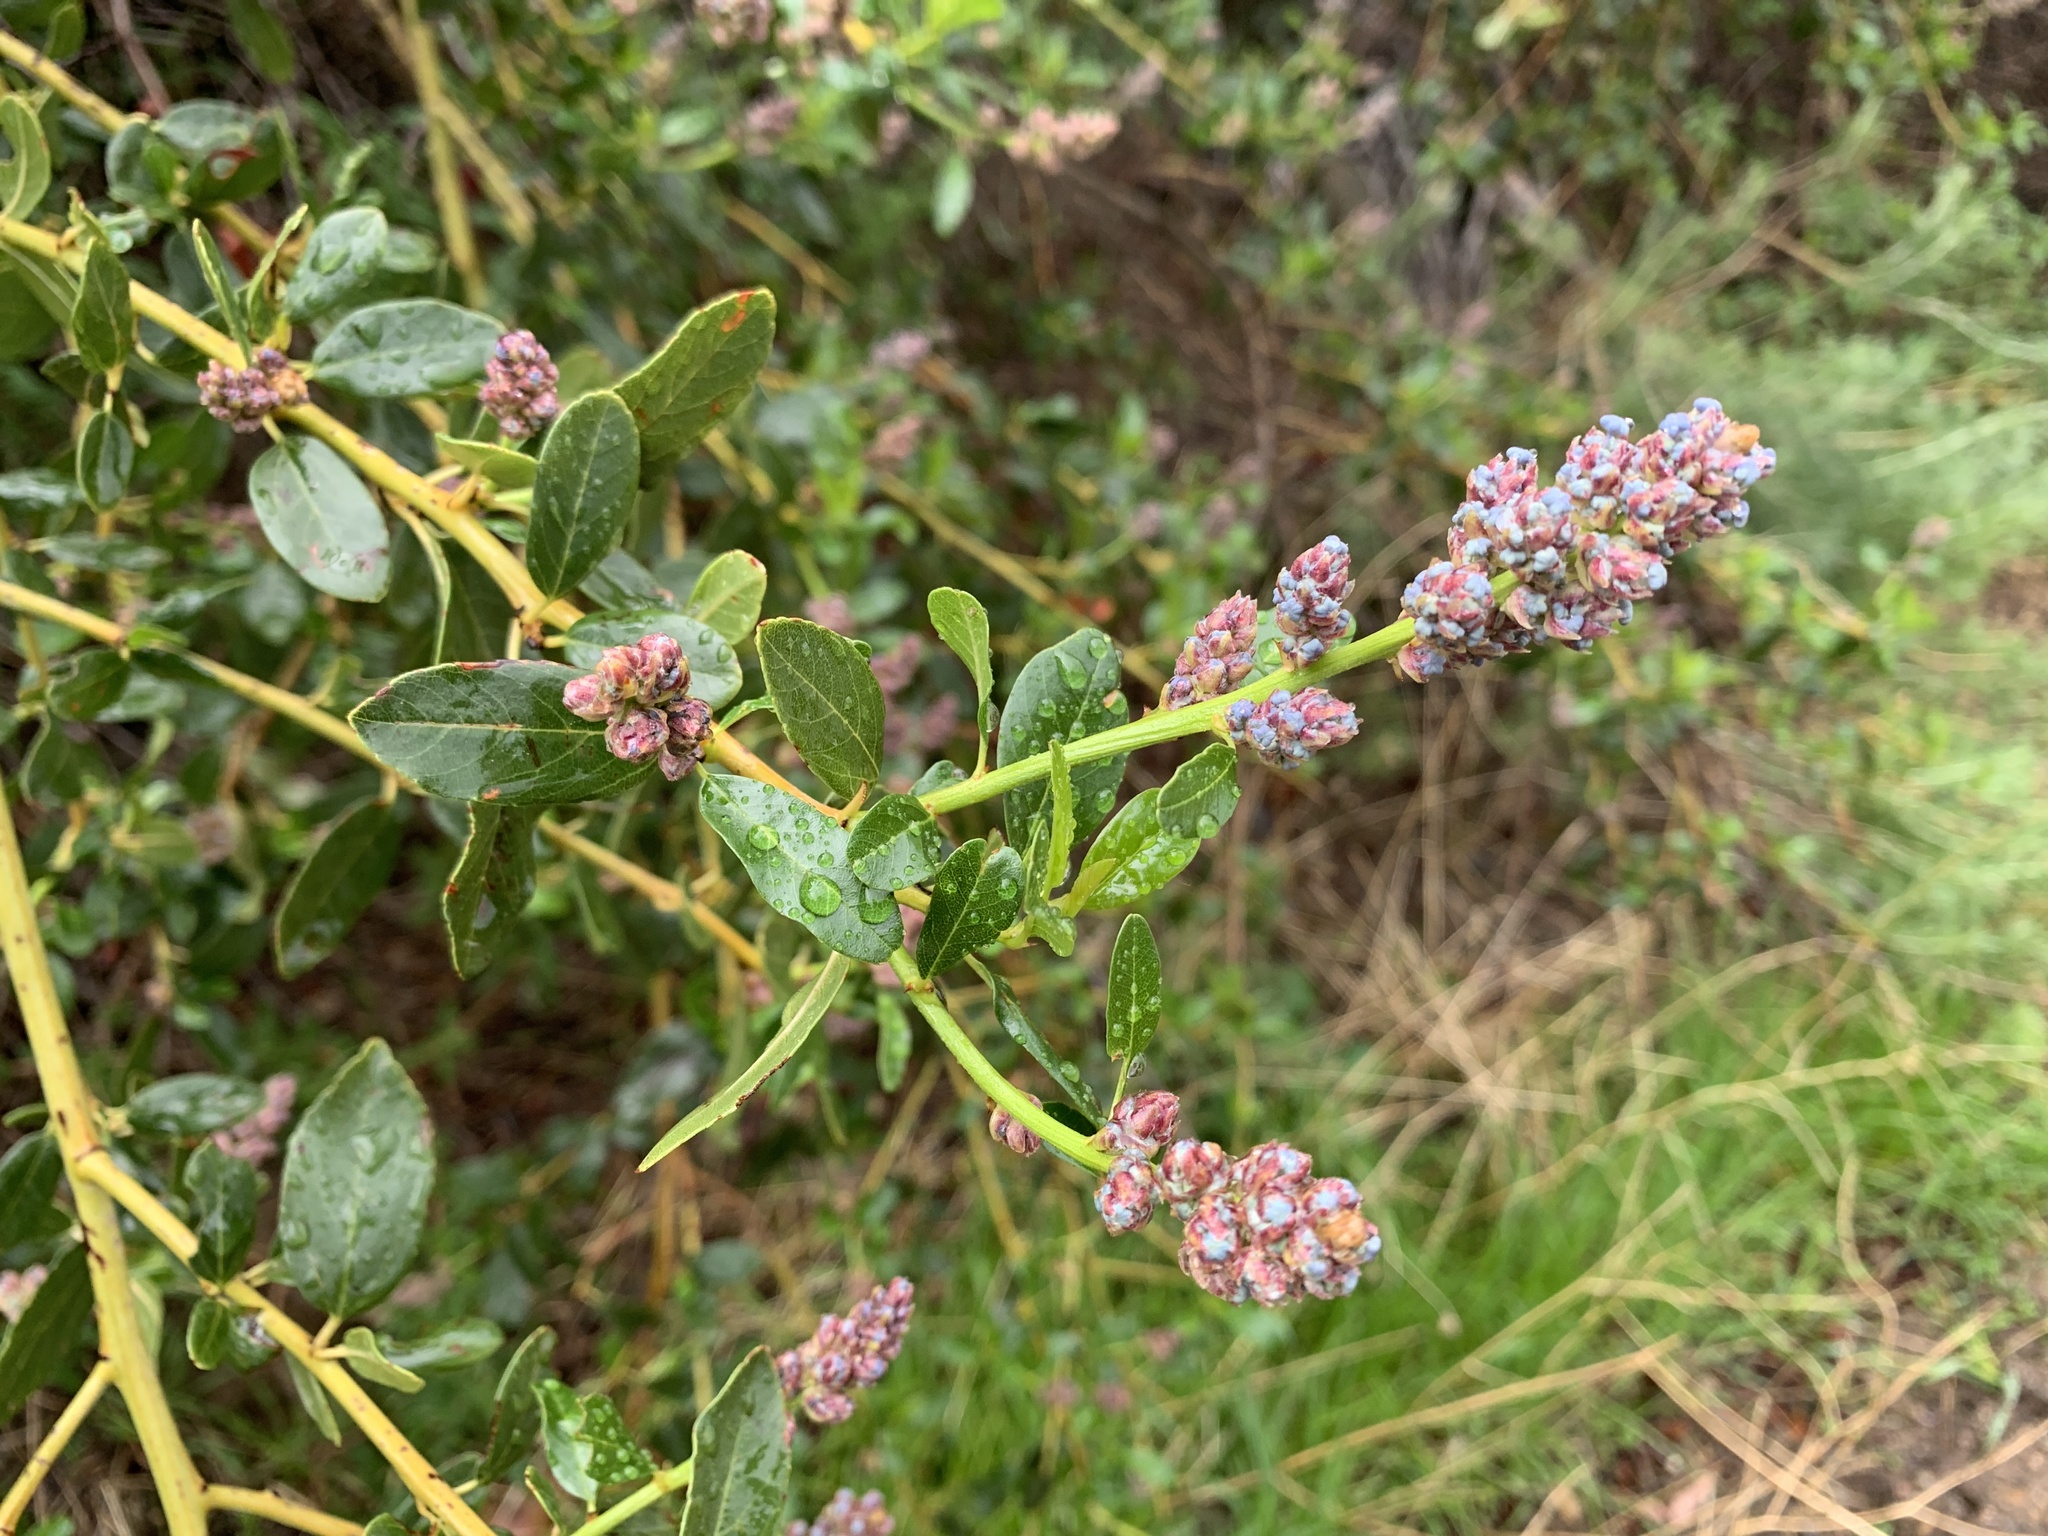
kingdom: Plantae
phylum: Tracheophyta
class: Magnoliopsida
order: Rosales
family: Rhamnaceae
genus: Ceanothus
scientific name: Ceanothus spinosus
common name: Greenbark whitethorn
